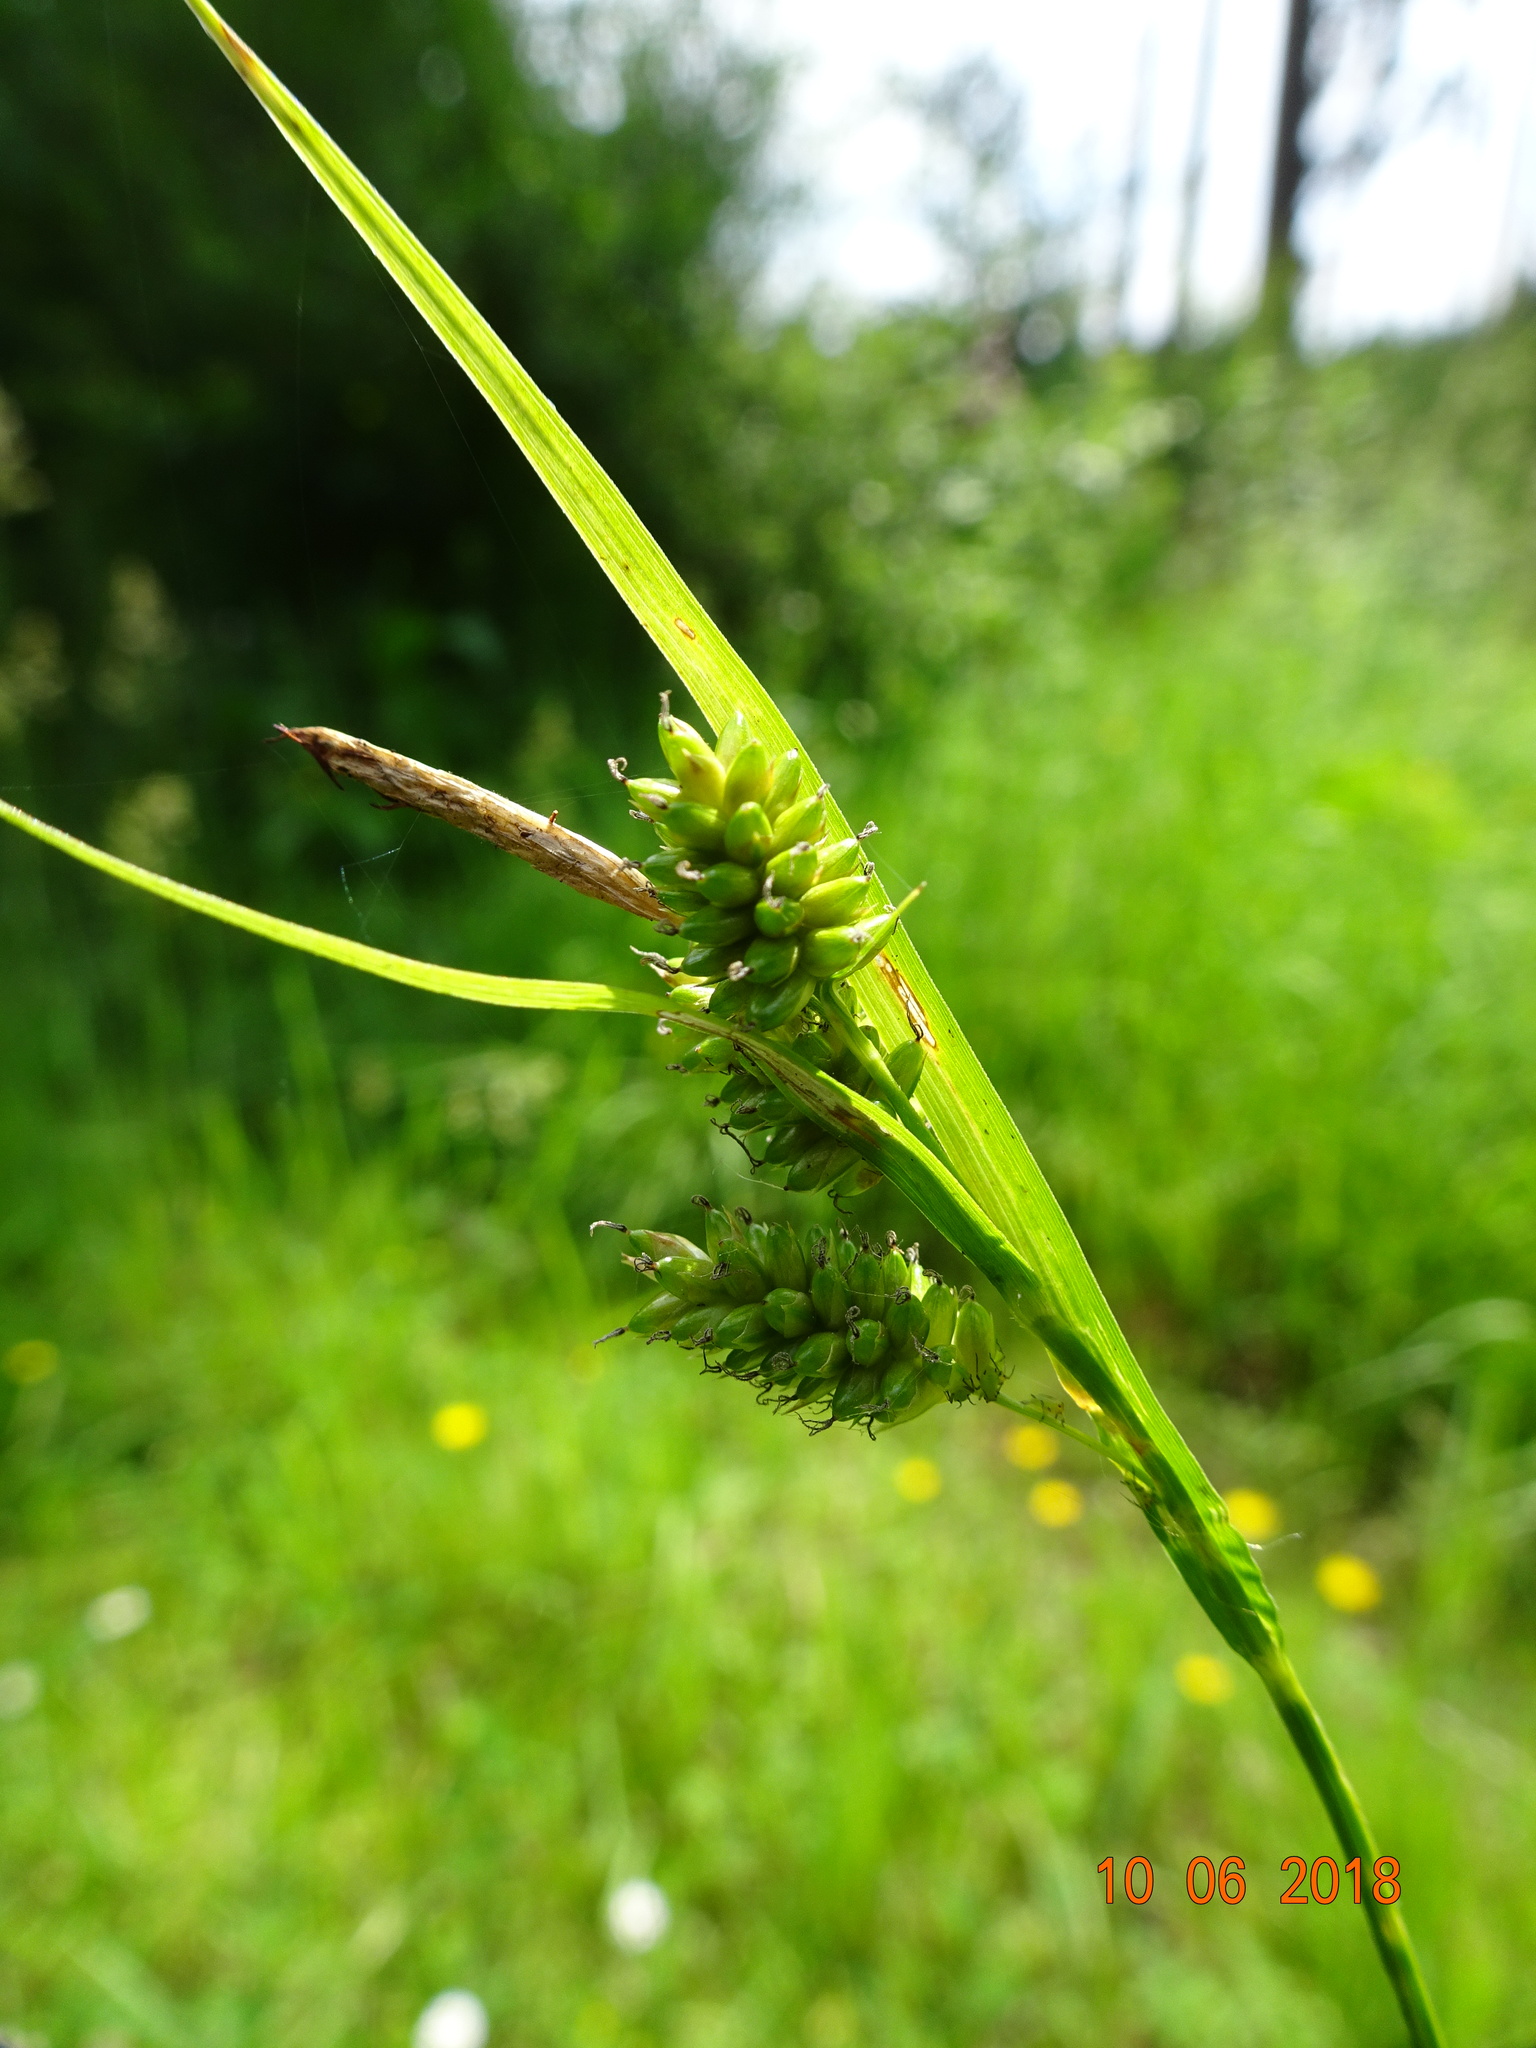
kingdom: Plantae
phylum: Tracheophyta
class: Liliopsida
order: Poales
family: Cyperaceae
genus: Carex
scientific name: Carex pallescens
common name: Pale sedge
